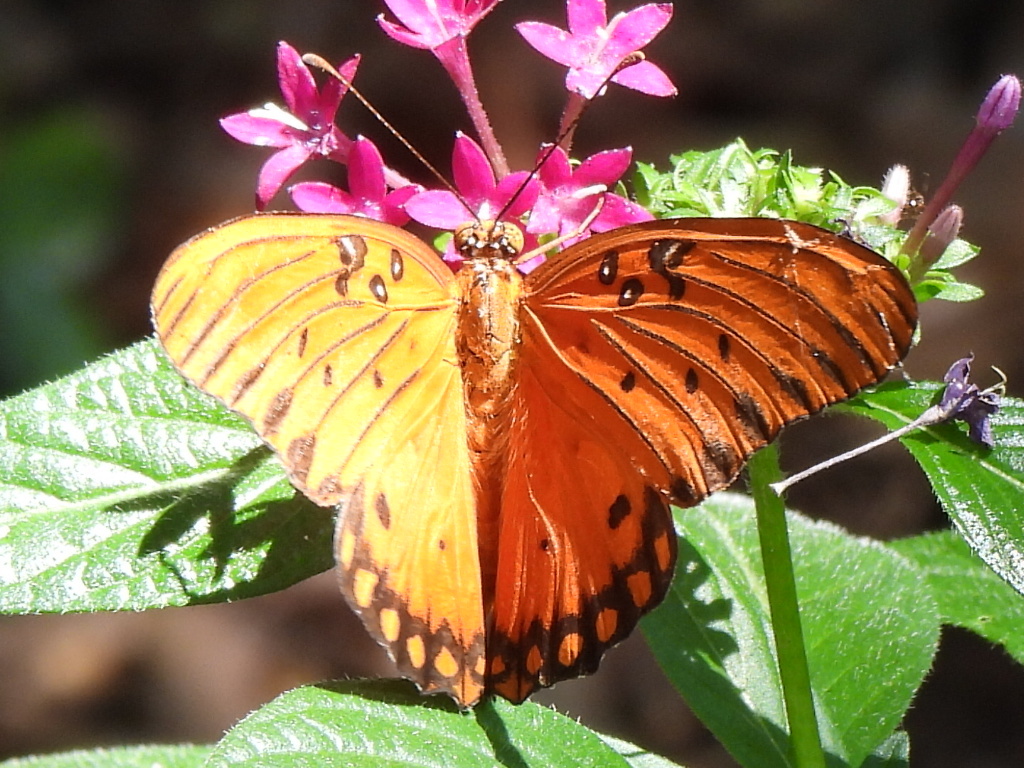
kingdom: Animalia
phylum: Arthropoda
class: Insecta
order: Lepidoptera
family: Nymphalidae
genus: Dione
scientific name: Dione vanillae
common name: Gulf fritillary
